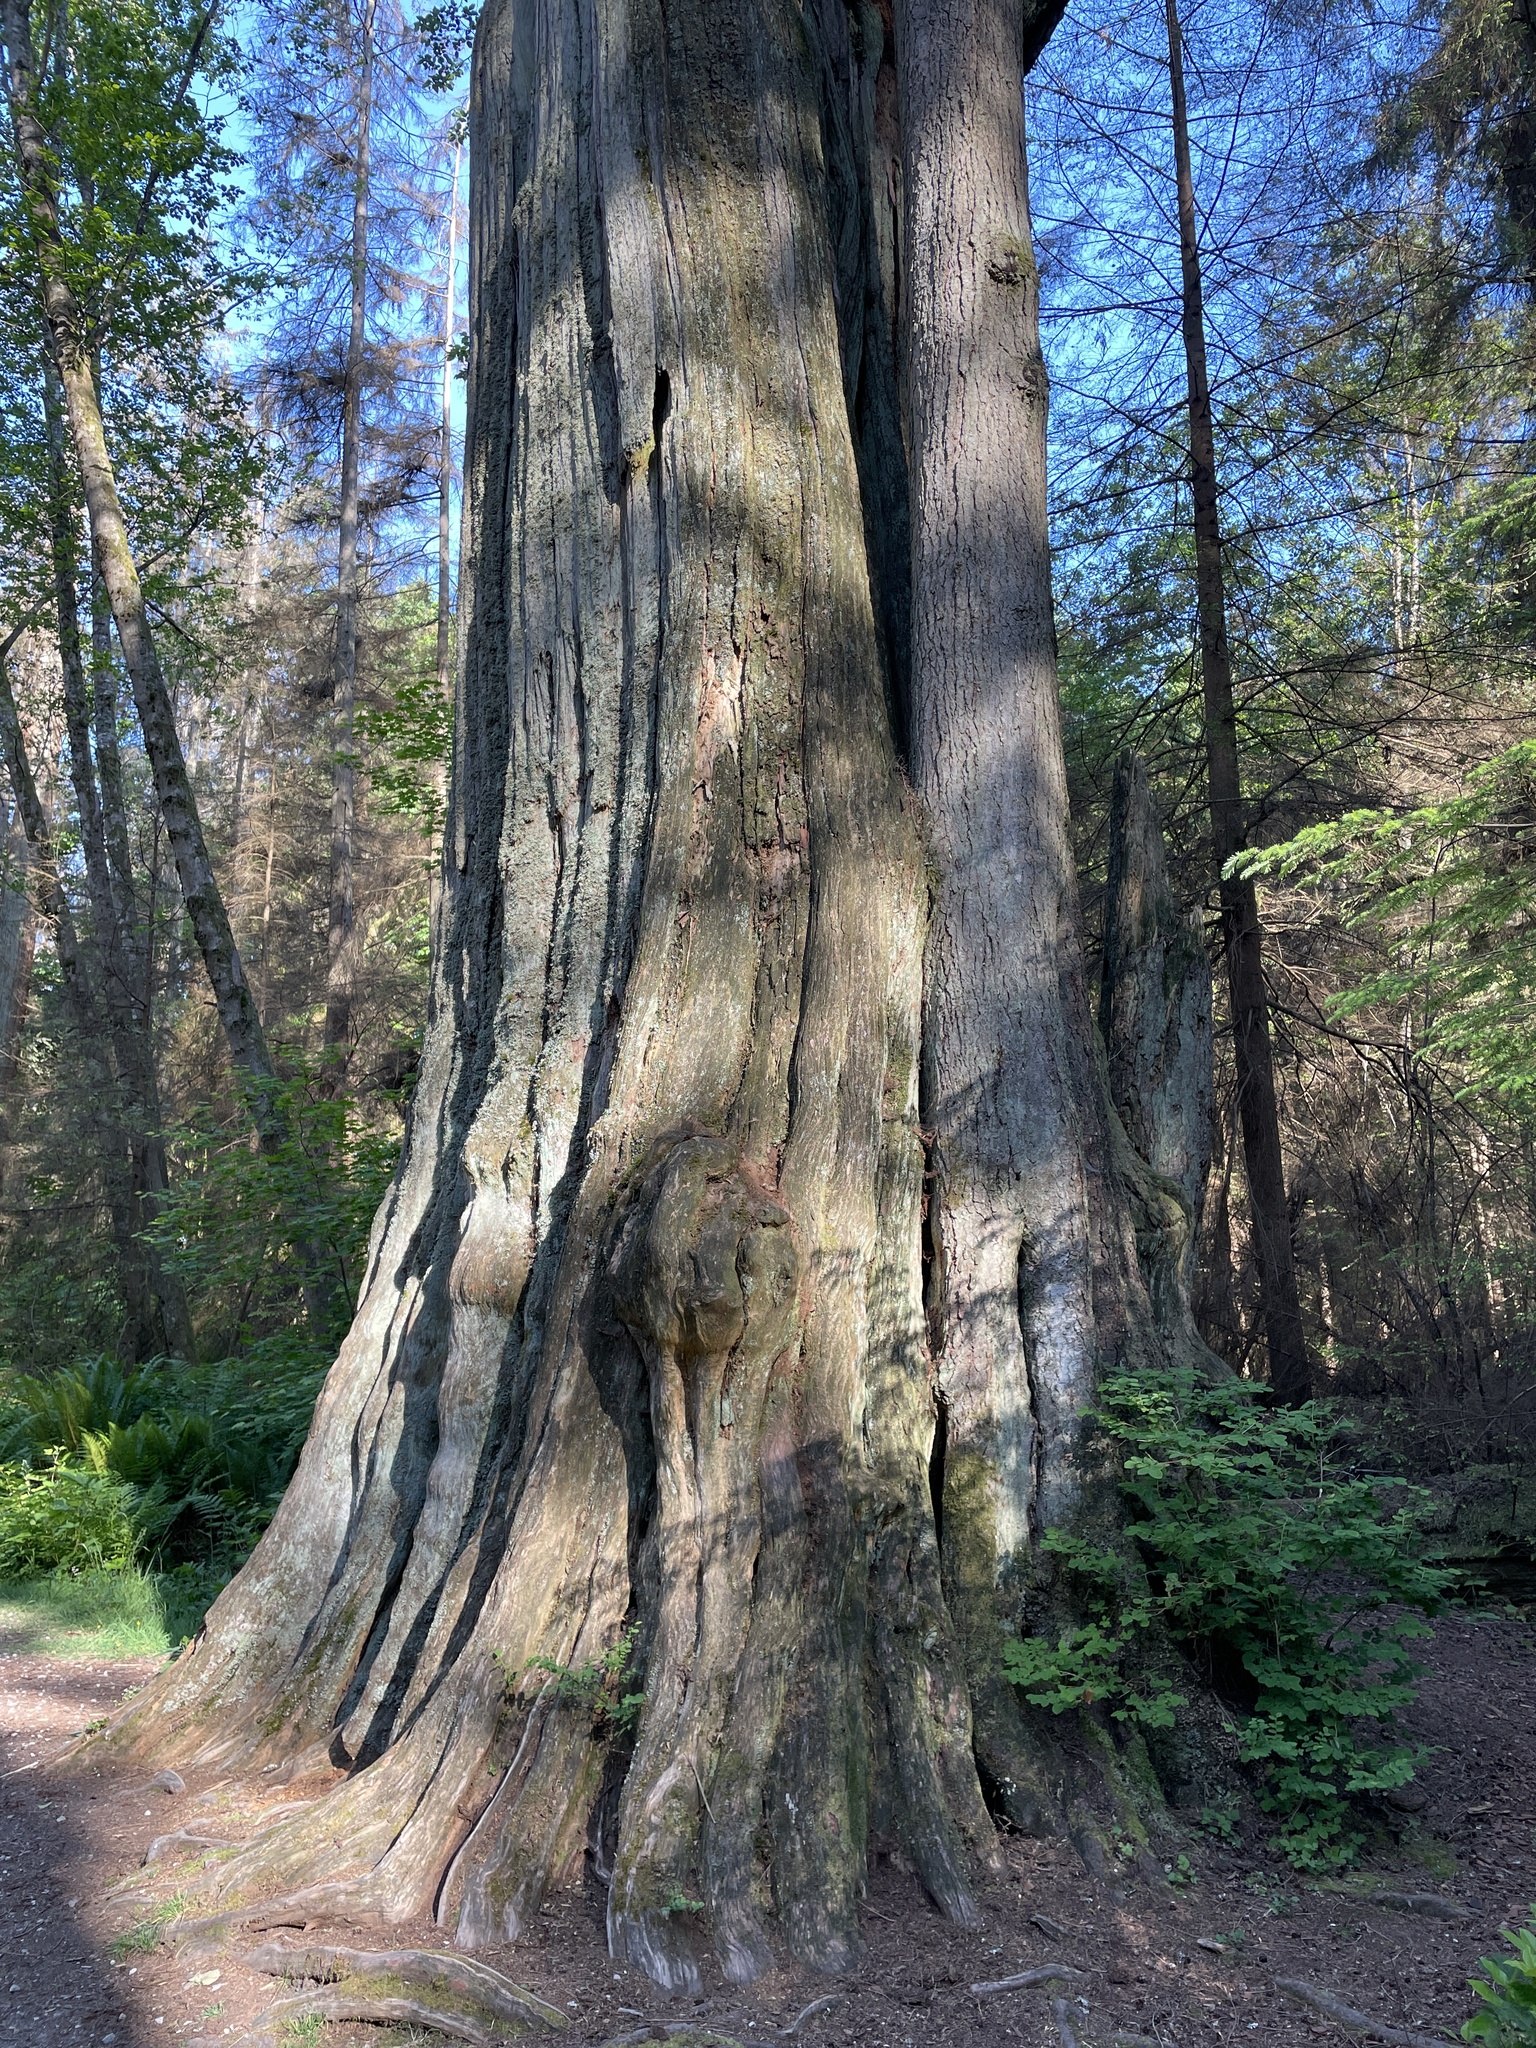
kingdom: Plantae
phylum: Tracheophyta
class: Pinopsida
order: Pinales
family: Cupressaceae
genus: Thuja
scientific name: Thuja plicata
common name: Western red-cedar
